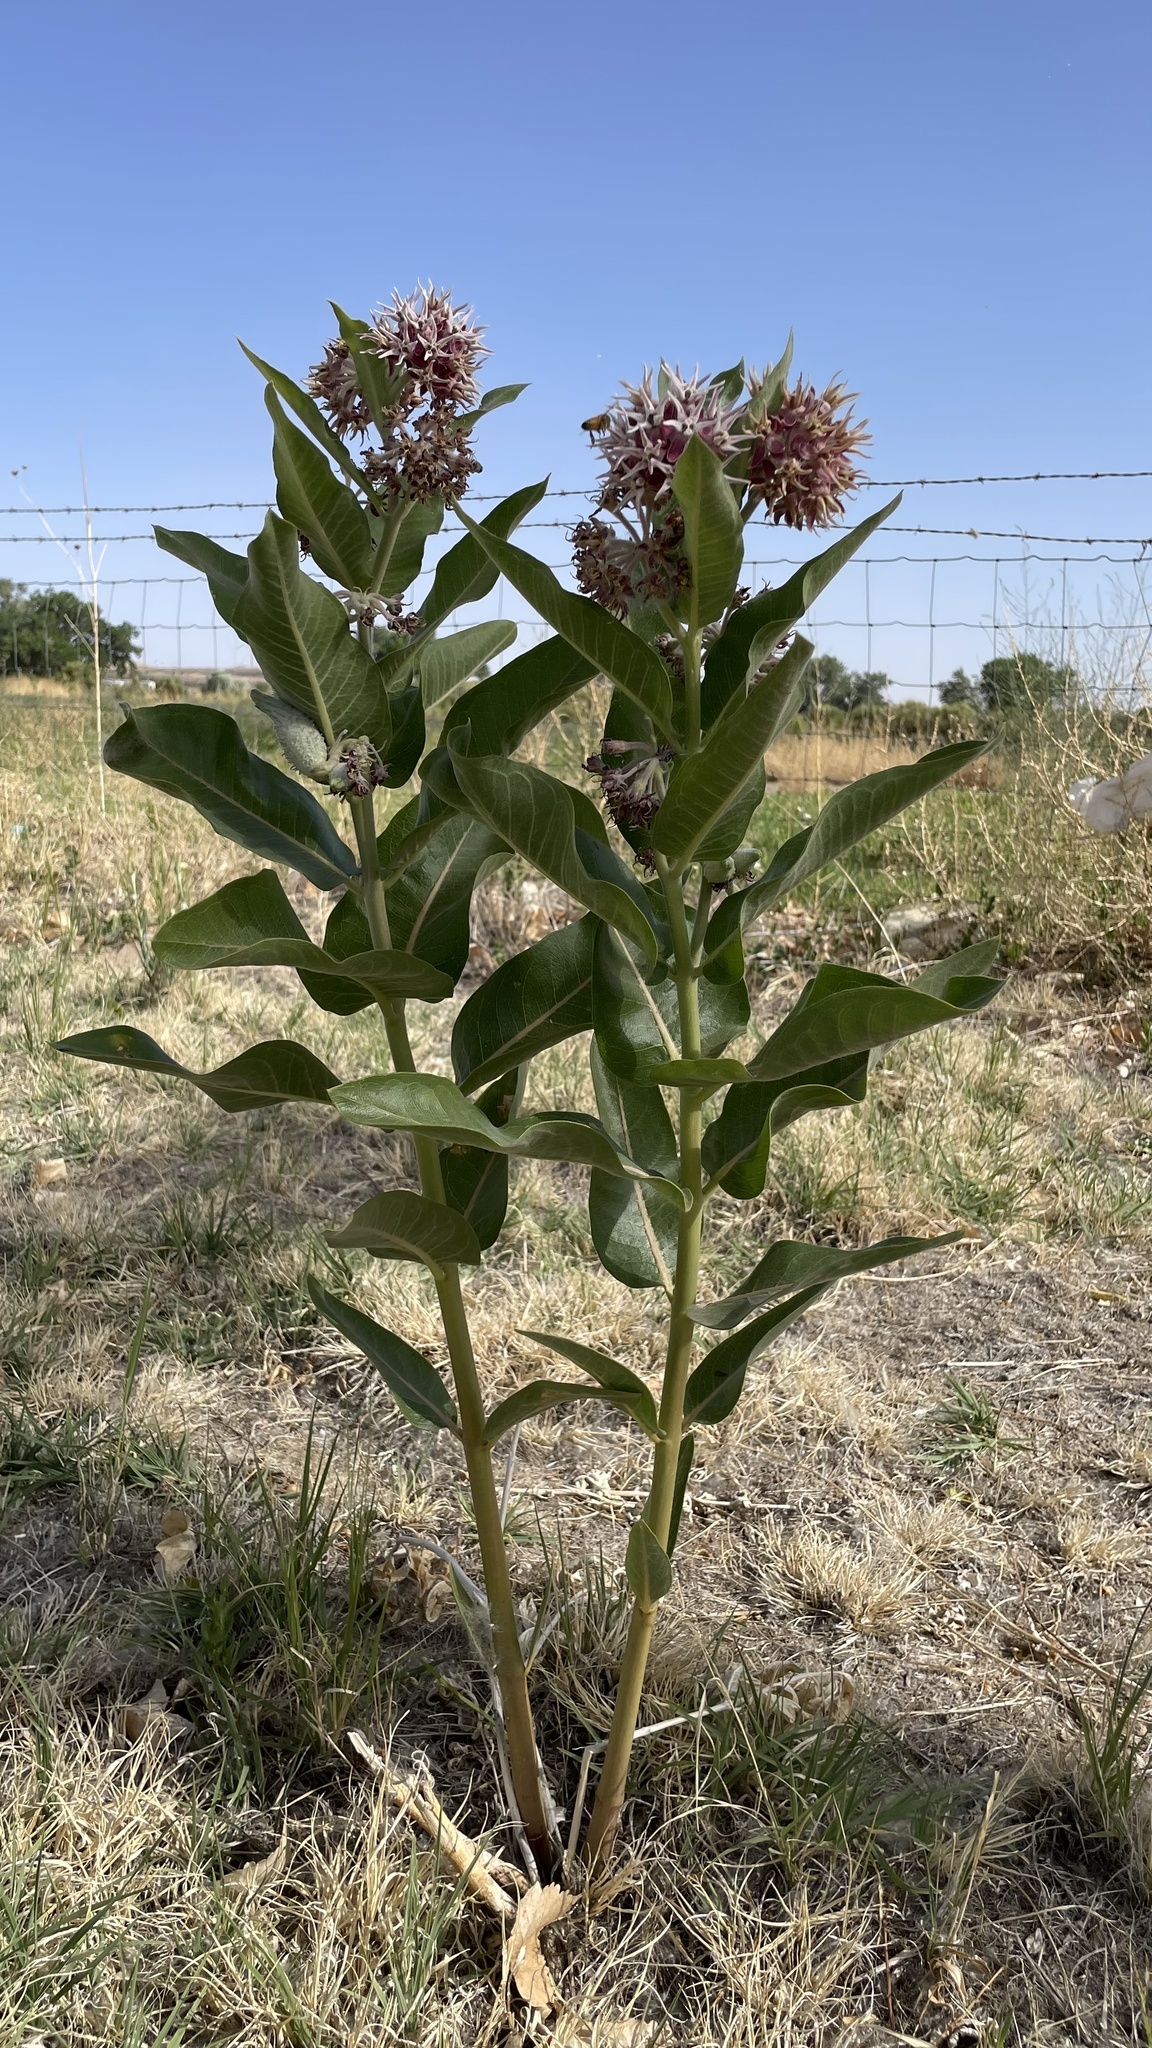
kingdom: Plantae
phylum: Tracheophyta
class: Magnoliopsida
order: Gentianales
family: Apocynaceae
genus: Asclepias
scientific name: Asclepias speciosa
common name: Showy milkweed
